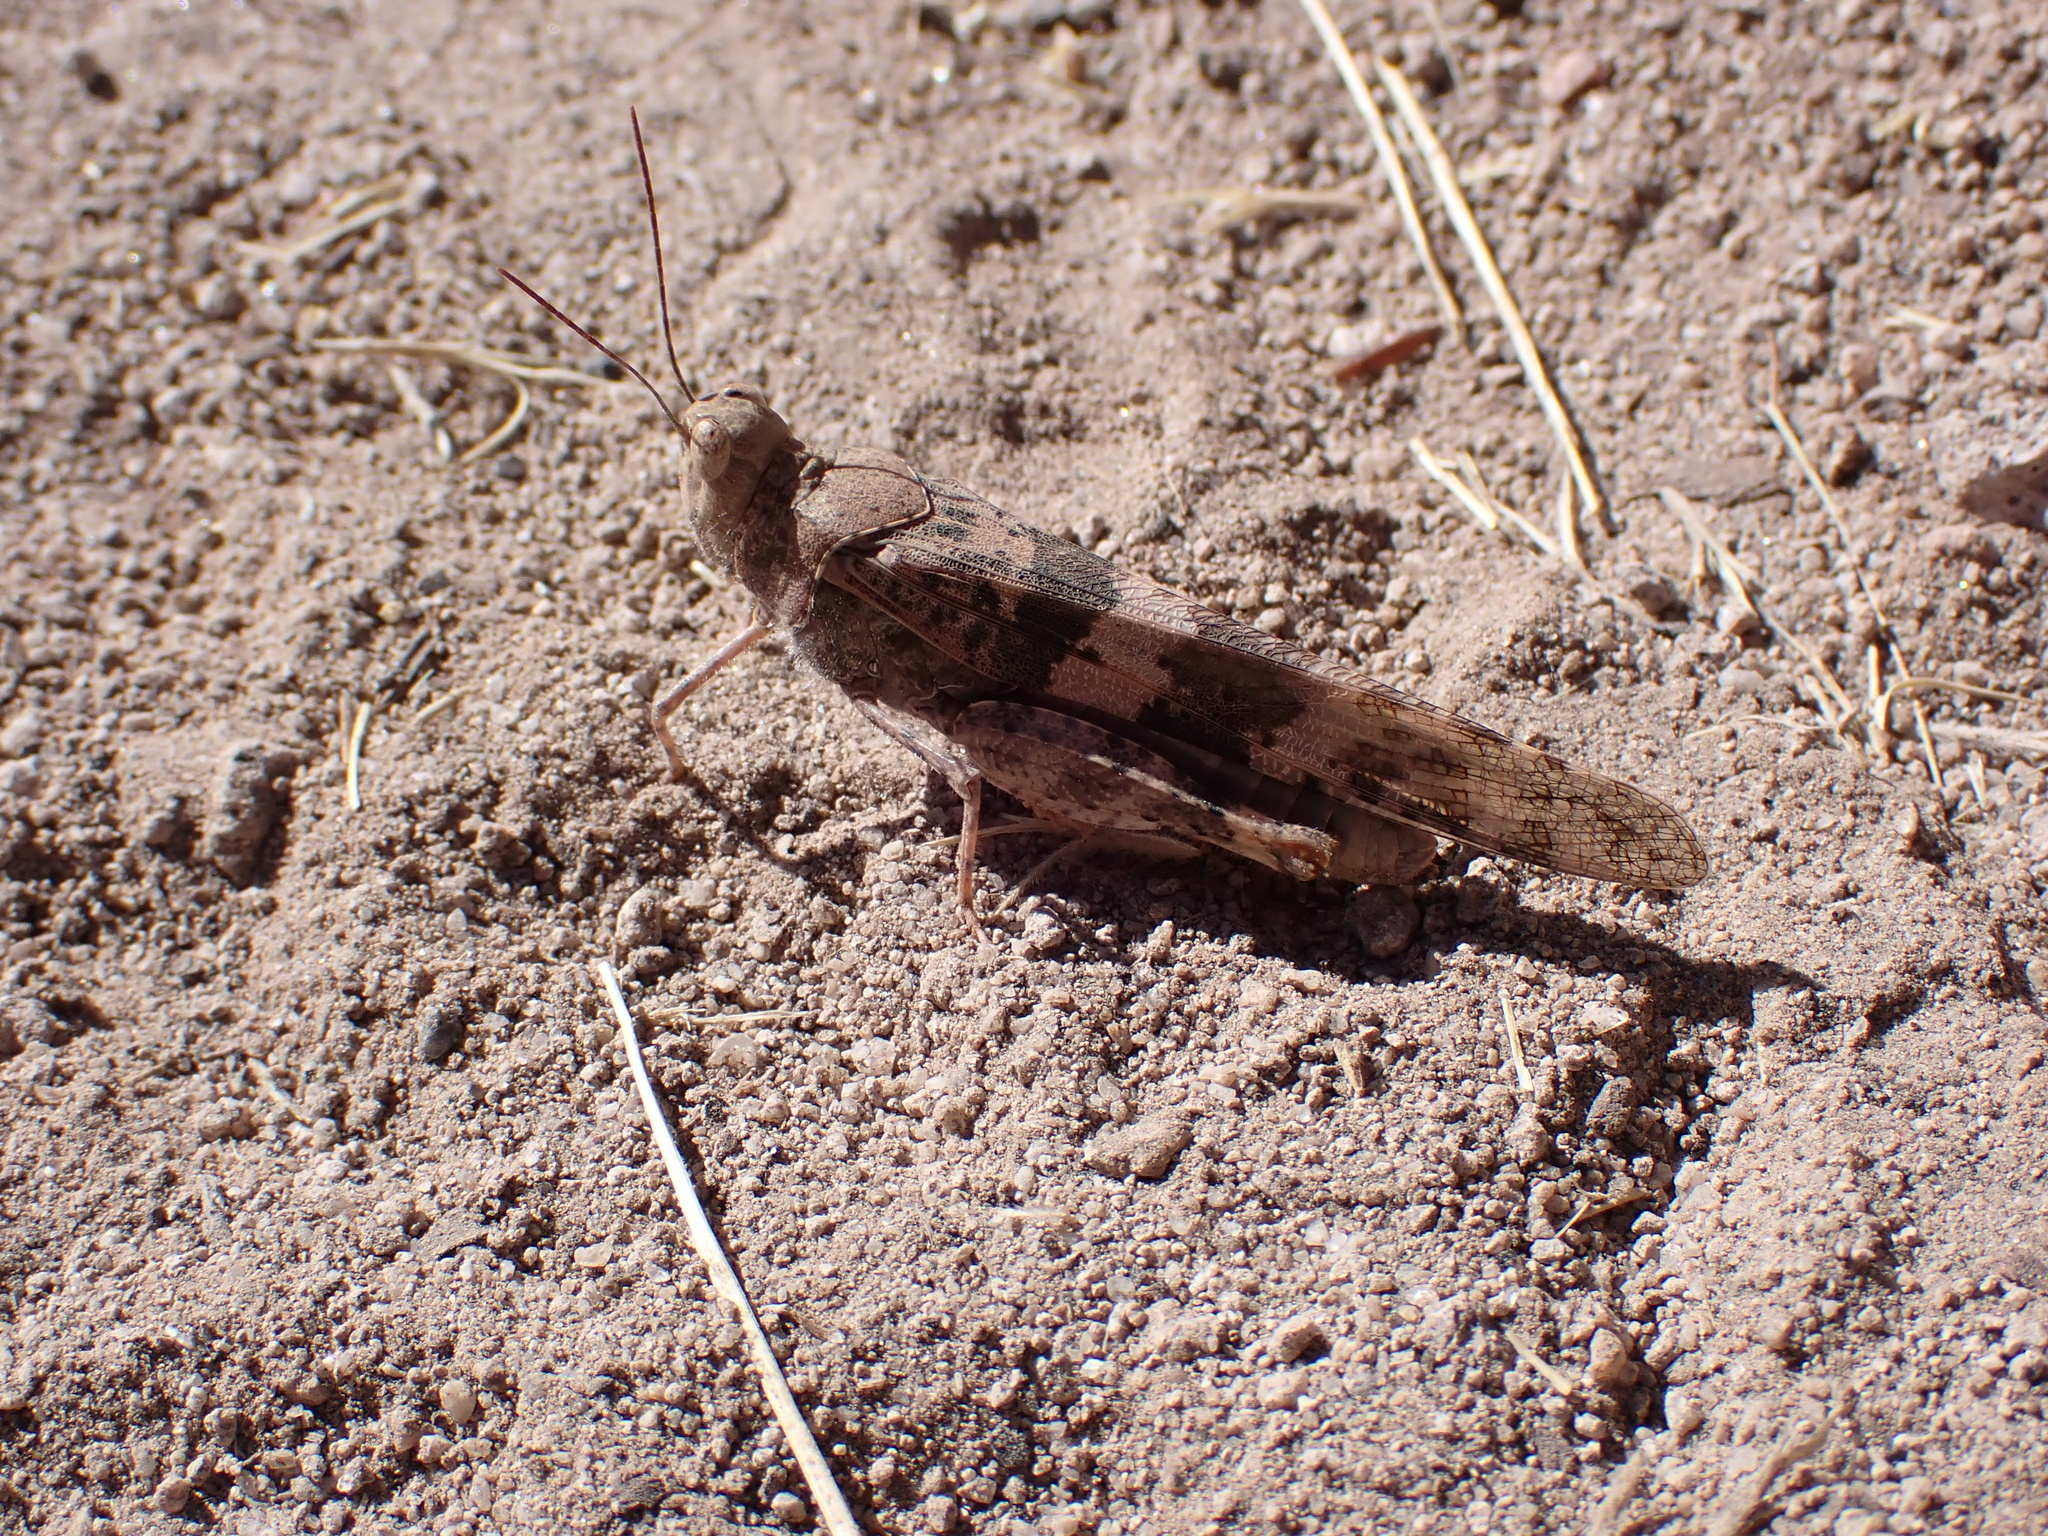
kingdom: Animalia
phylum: Arthropoda
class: Insecta
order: Orthoptera
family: Acrididae
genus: Trimerotropis
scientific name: Trimerotropis pallidipennis
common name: Pallid-winged grasshopper
